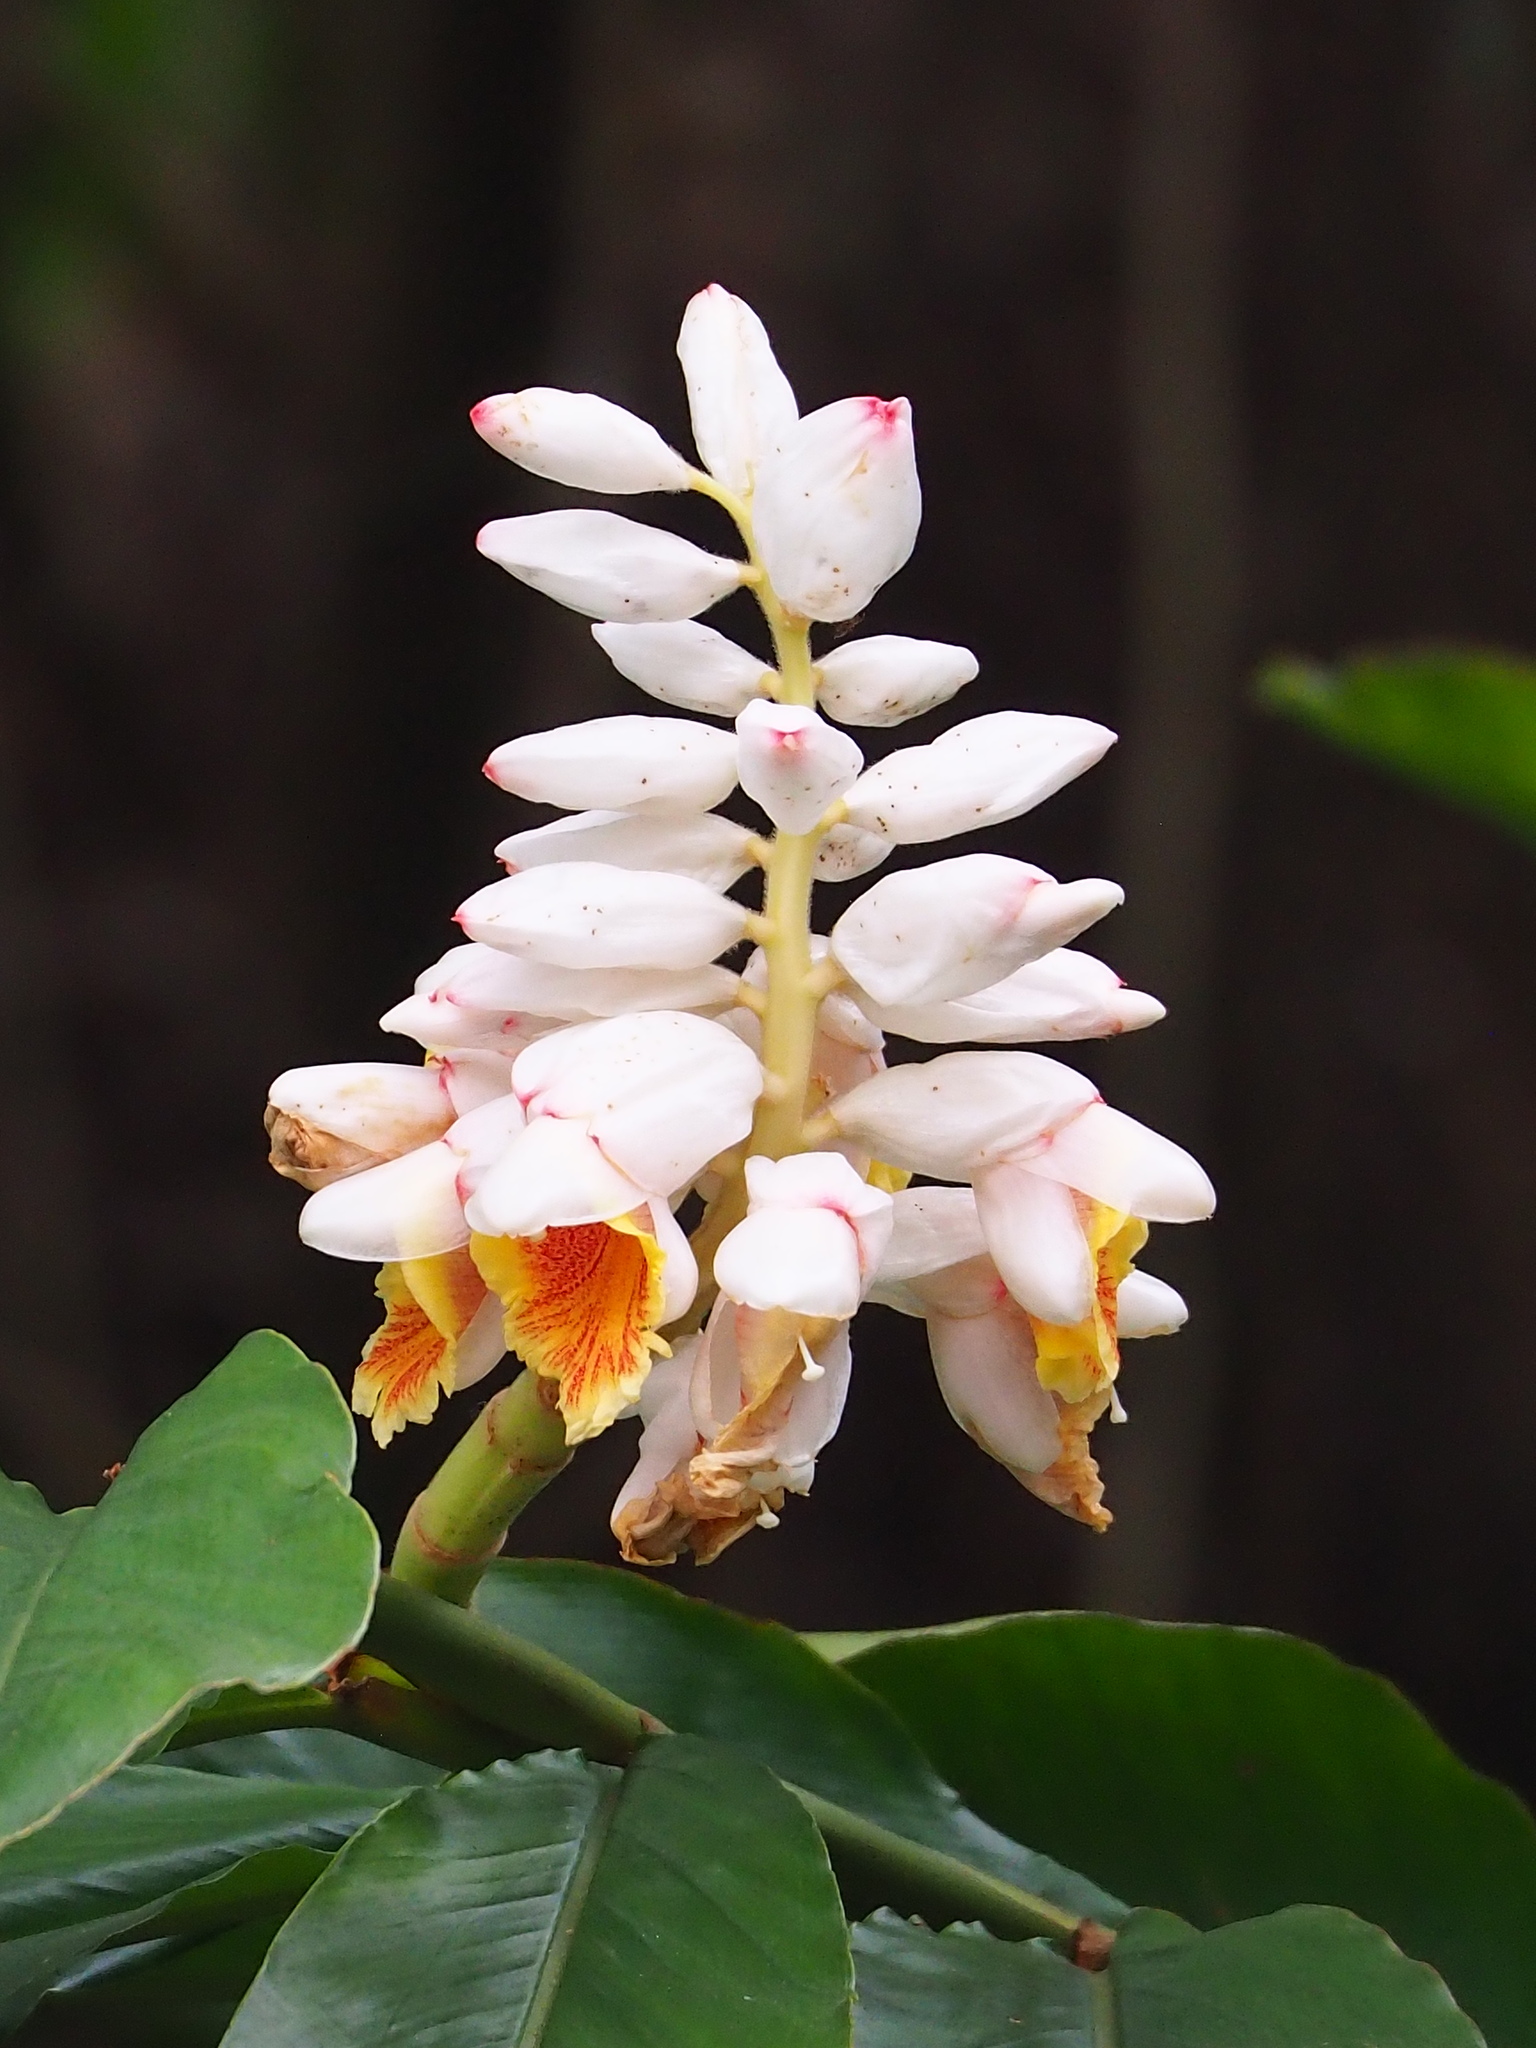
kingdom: Plantae
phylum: Tracheophyta
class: Liliopsida
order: Zingiberales
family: Zingiberaceae
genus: Alpinia
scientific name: Alpinia uraiensis
